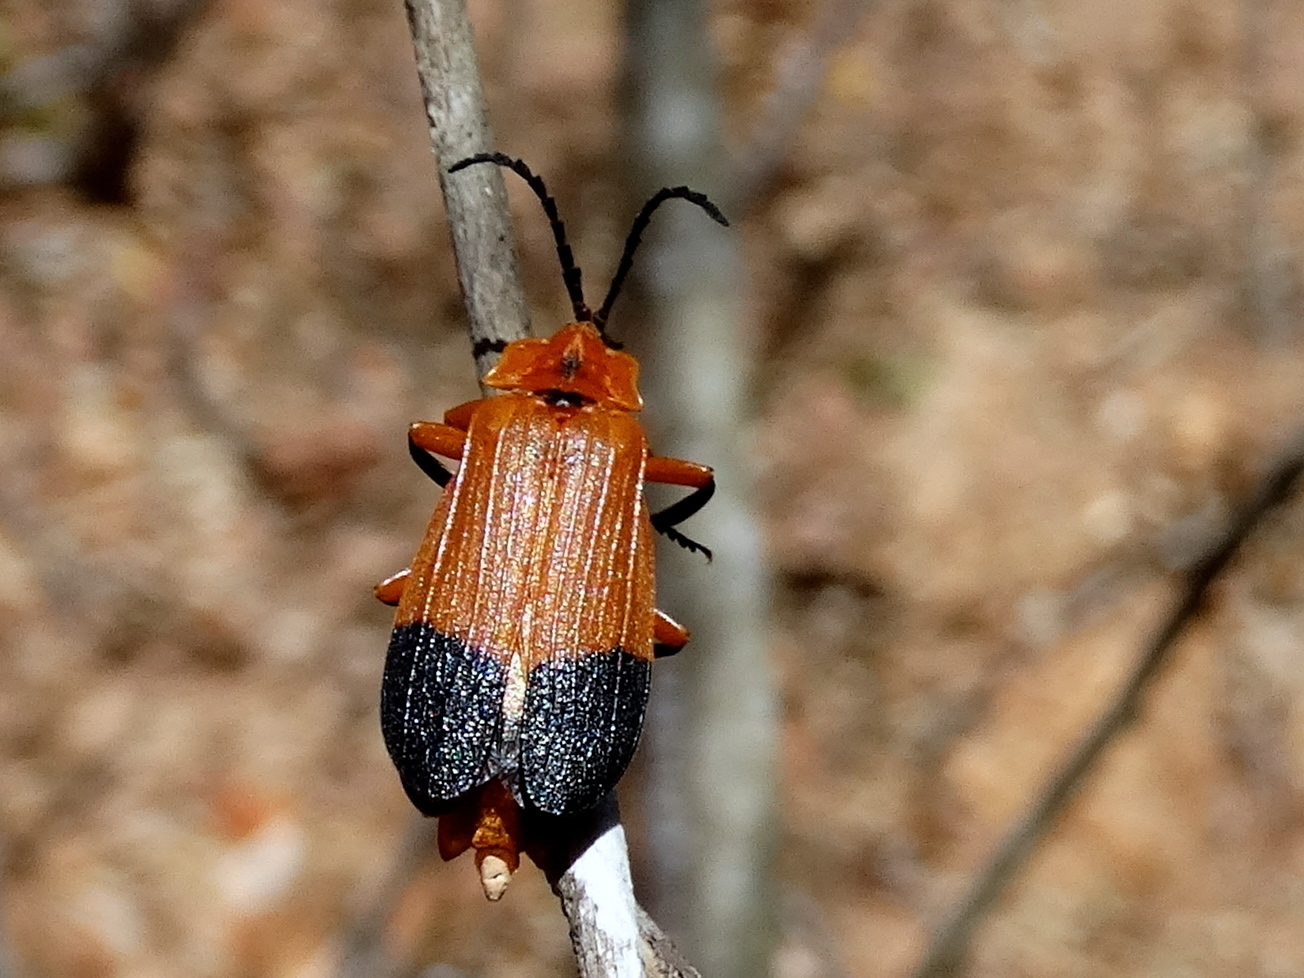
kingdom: Animalia
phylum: Arthropoda
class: Insecta
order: Coleoptera
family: Lycidae
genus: Lycus
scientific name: Lycus
